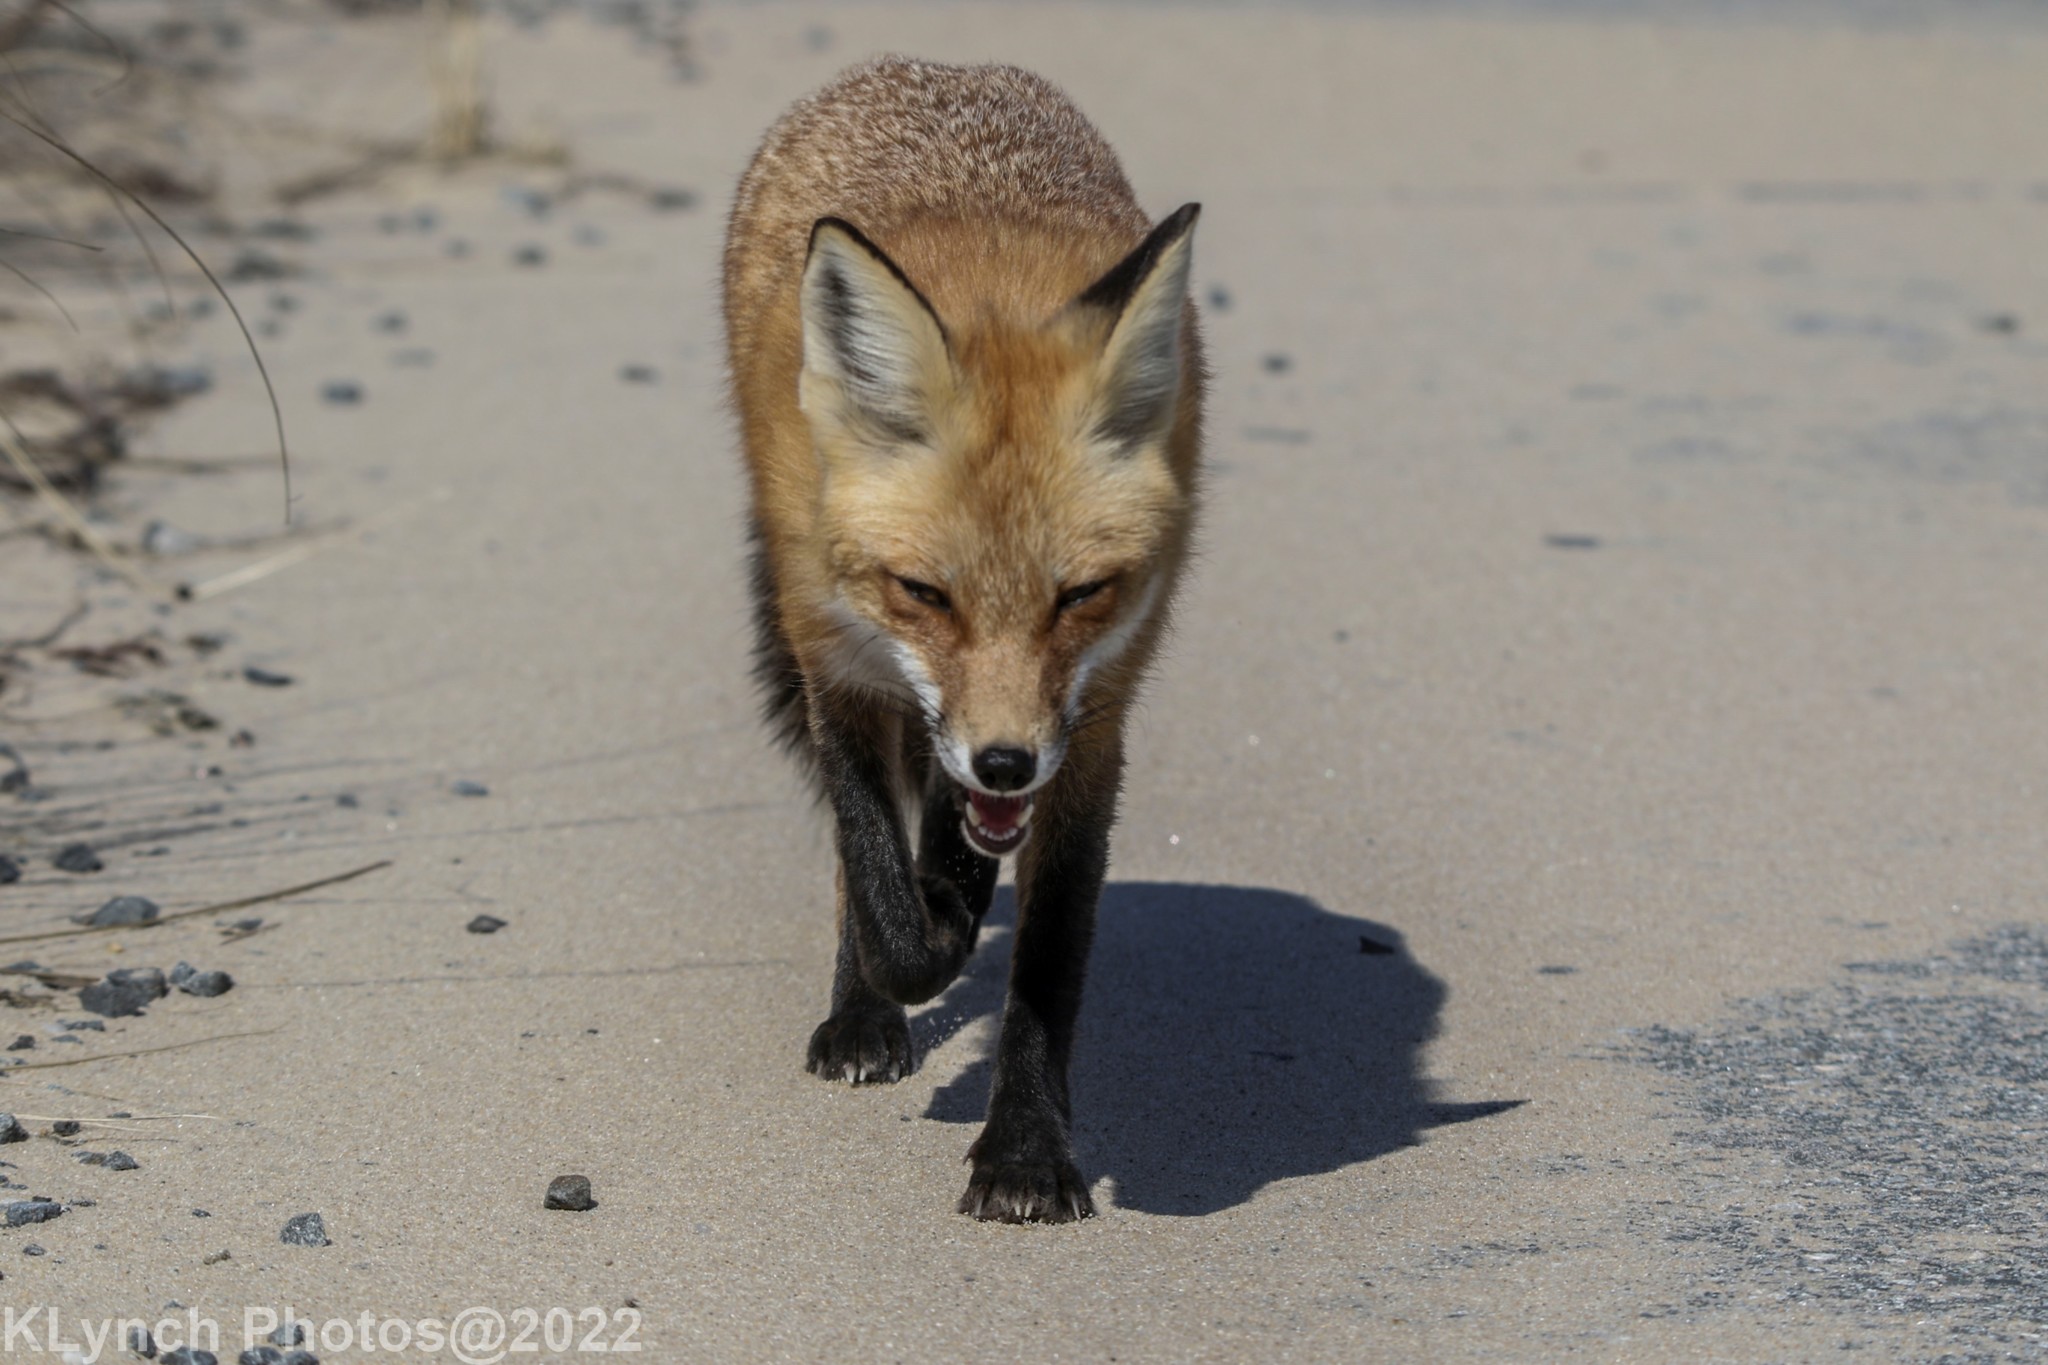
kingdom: Animalia
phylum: Chordata
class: Mammalia
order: Carnivora
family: Canidae
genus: Vulpes
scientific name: Vulpes vulpes
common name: Red fox
